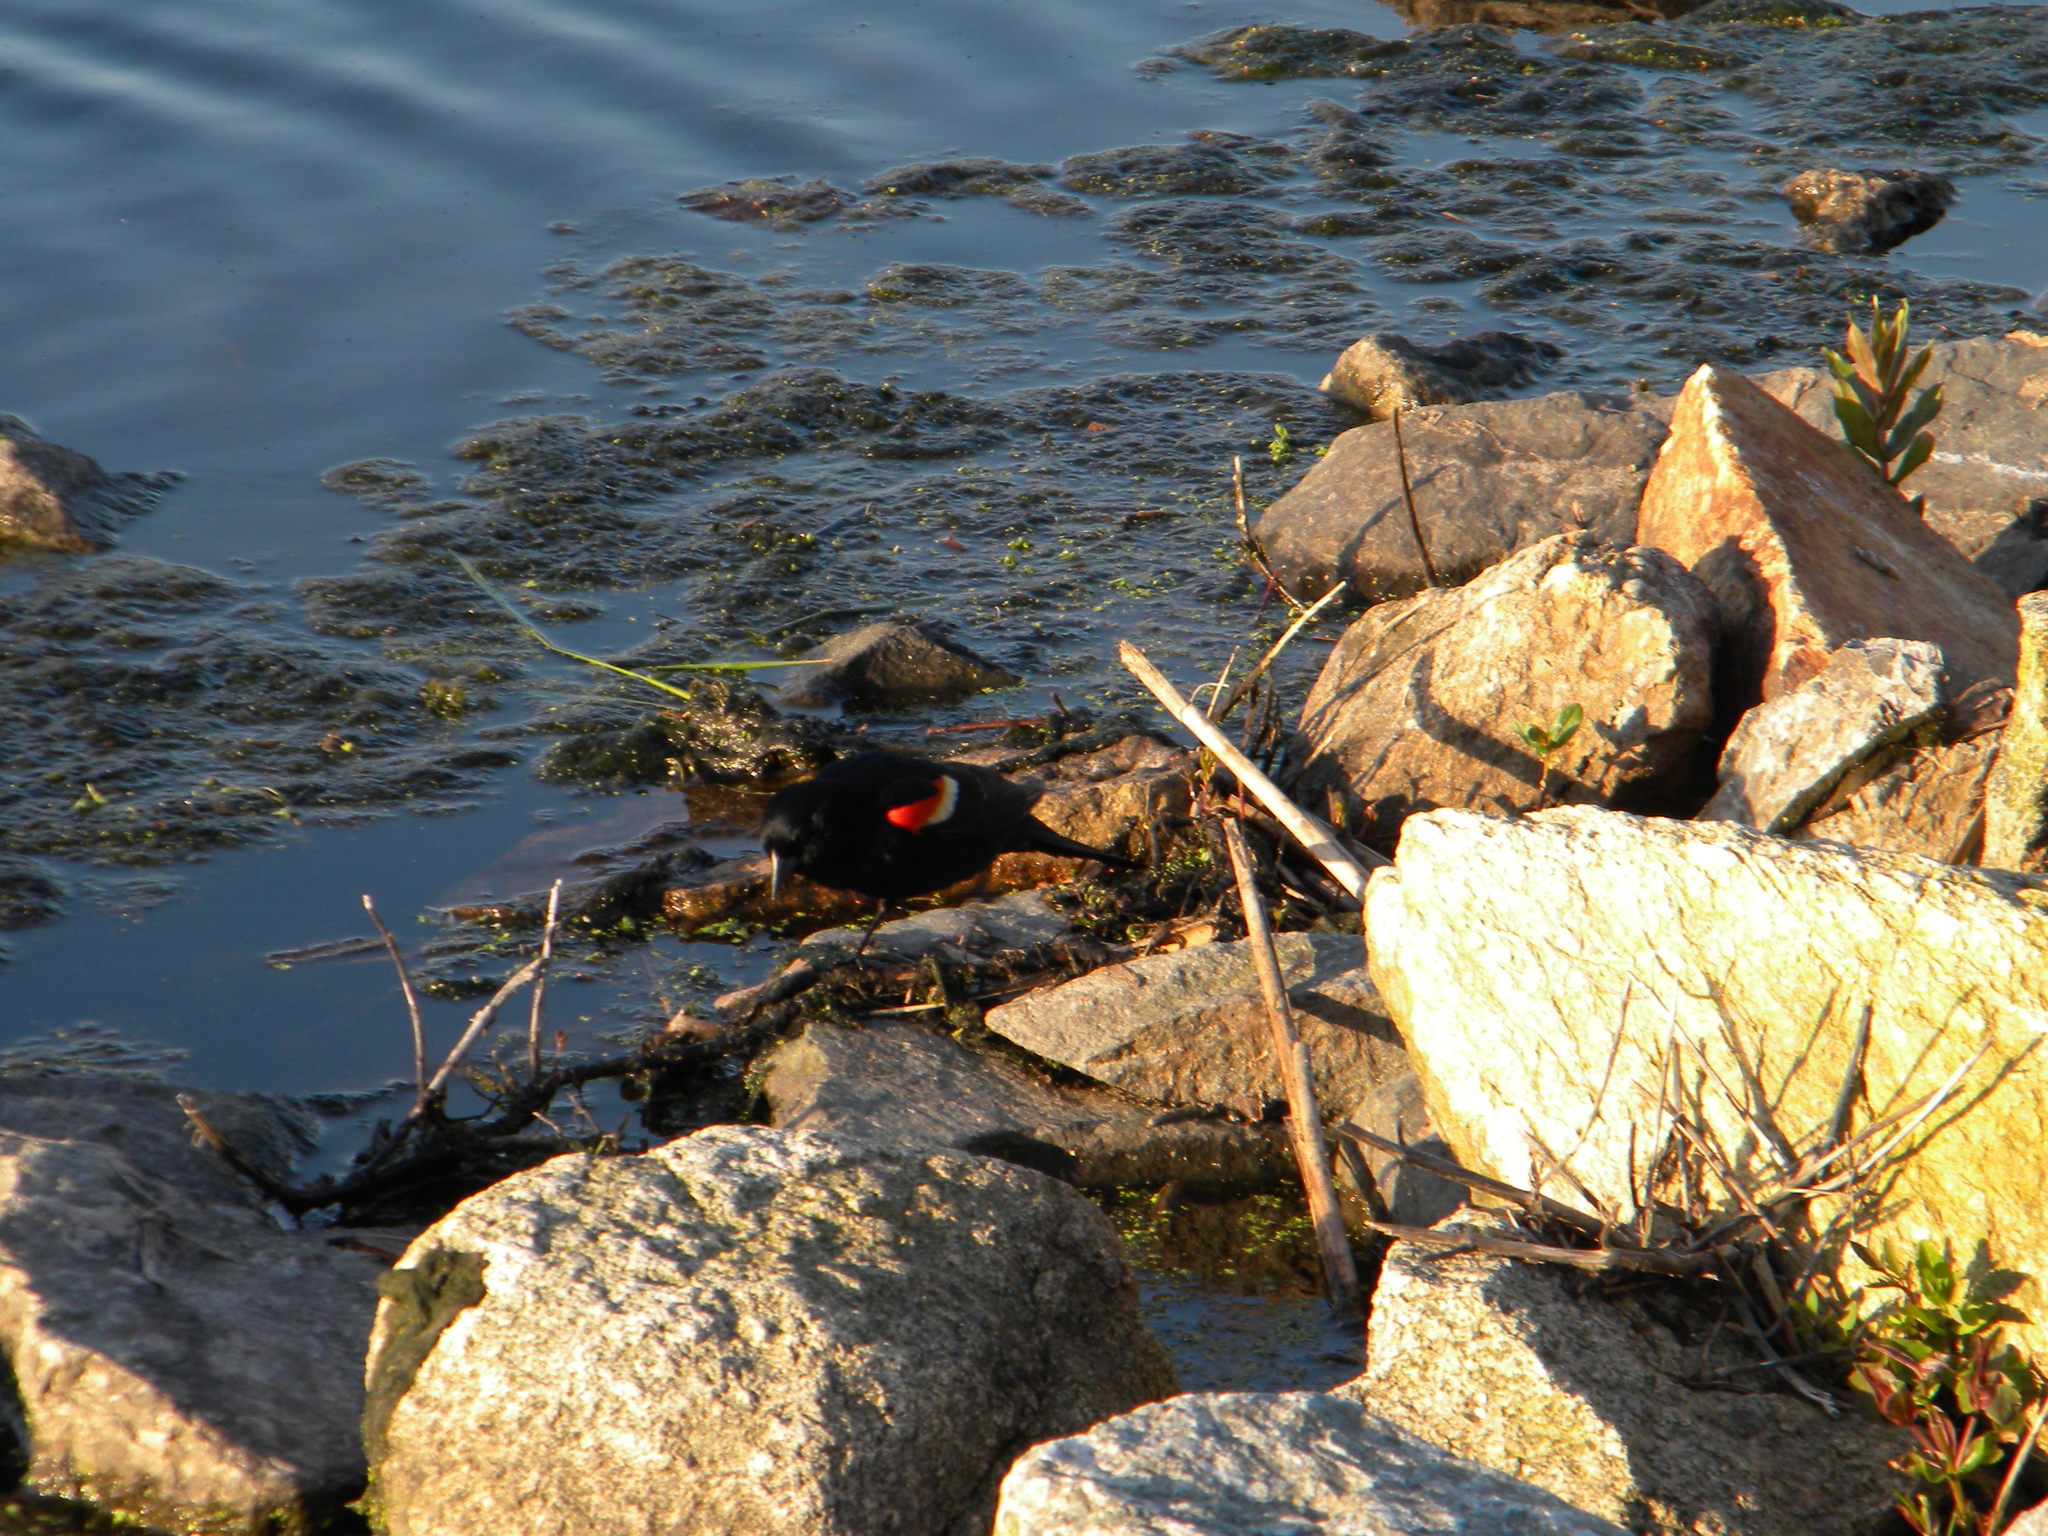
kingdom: Animalia
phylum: Chordata
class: Aves
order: Passeriformes
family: Icteridae
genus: Agelaius
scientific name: Agelaius phoeniceus
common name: Red-winged blackbird
